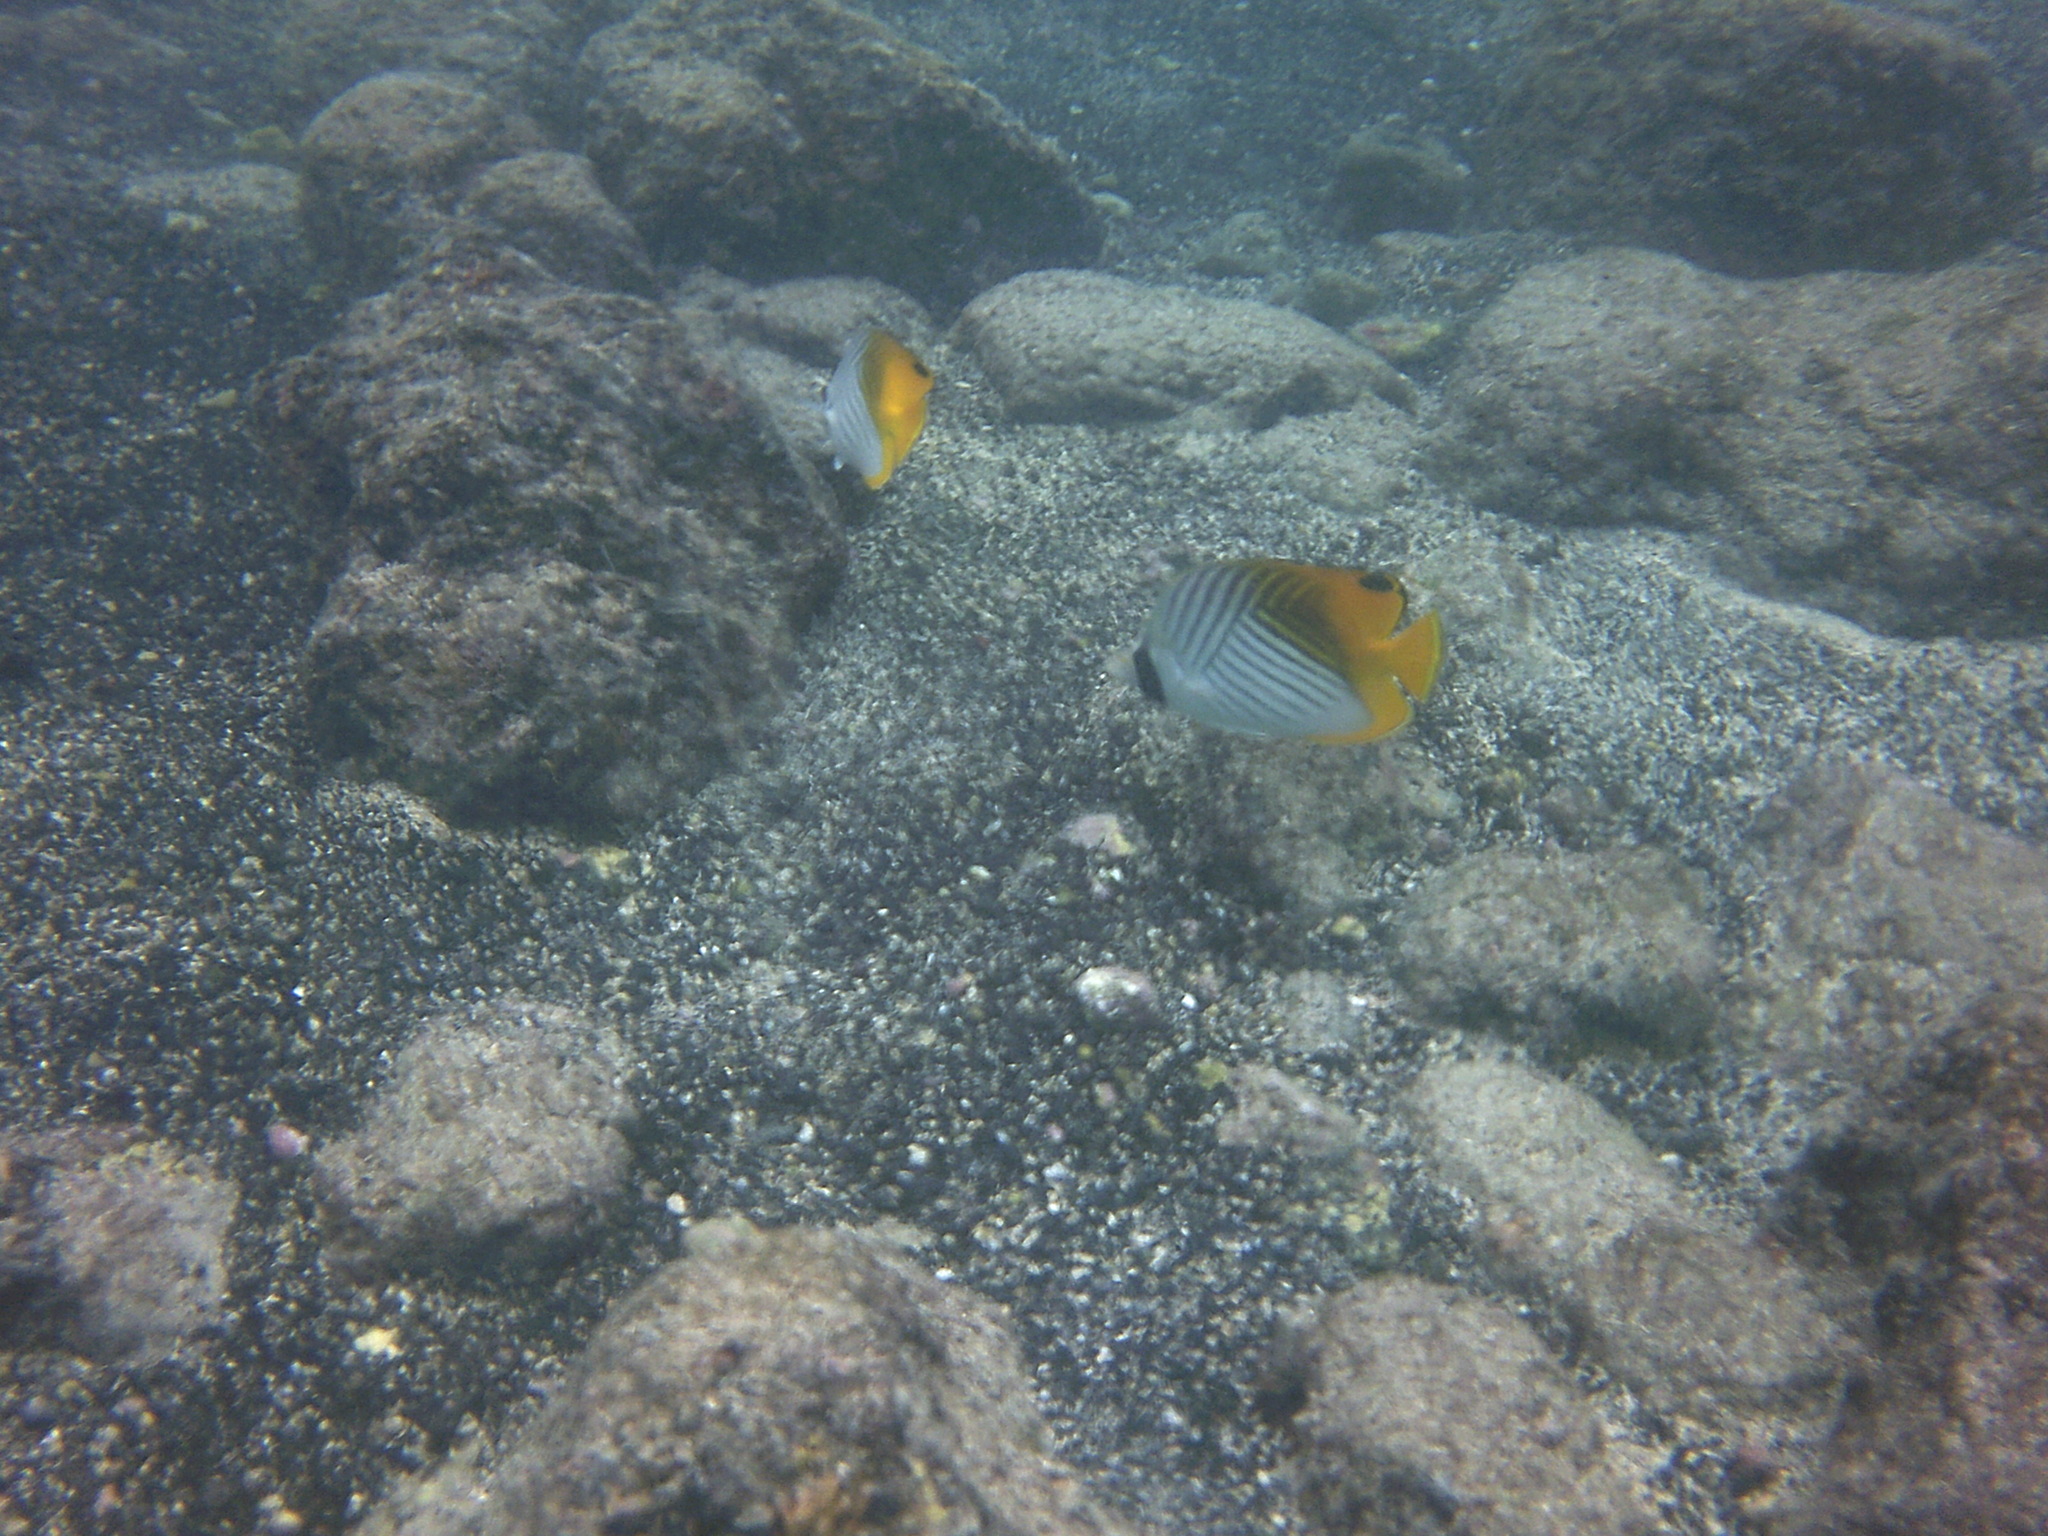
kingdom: Animalia
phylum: Chordata
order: Perciformes
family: Chaetodontidae
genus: Chaetodon
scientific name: Chaetodon auriga
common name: Threadfin butterflyfish
